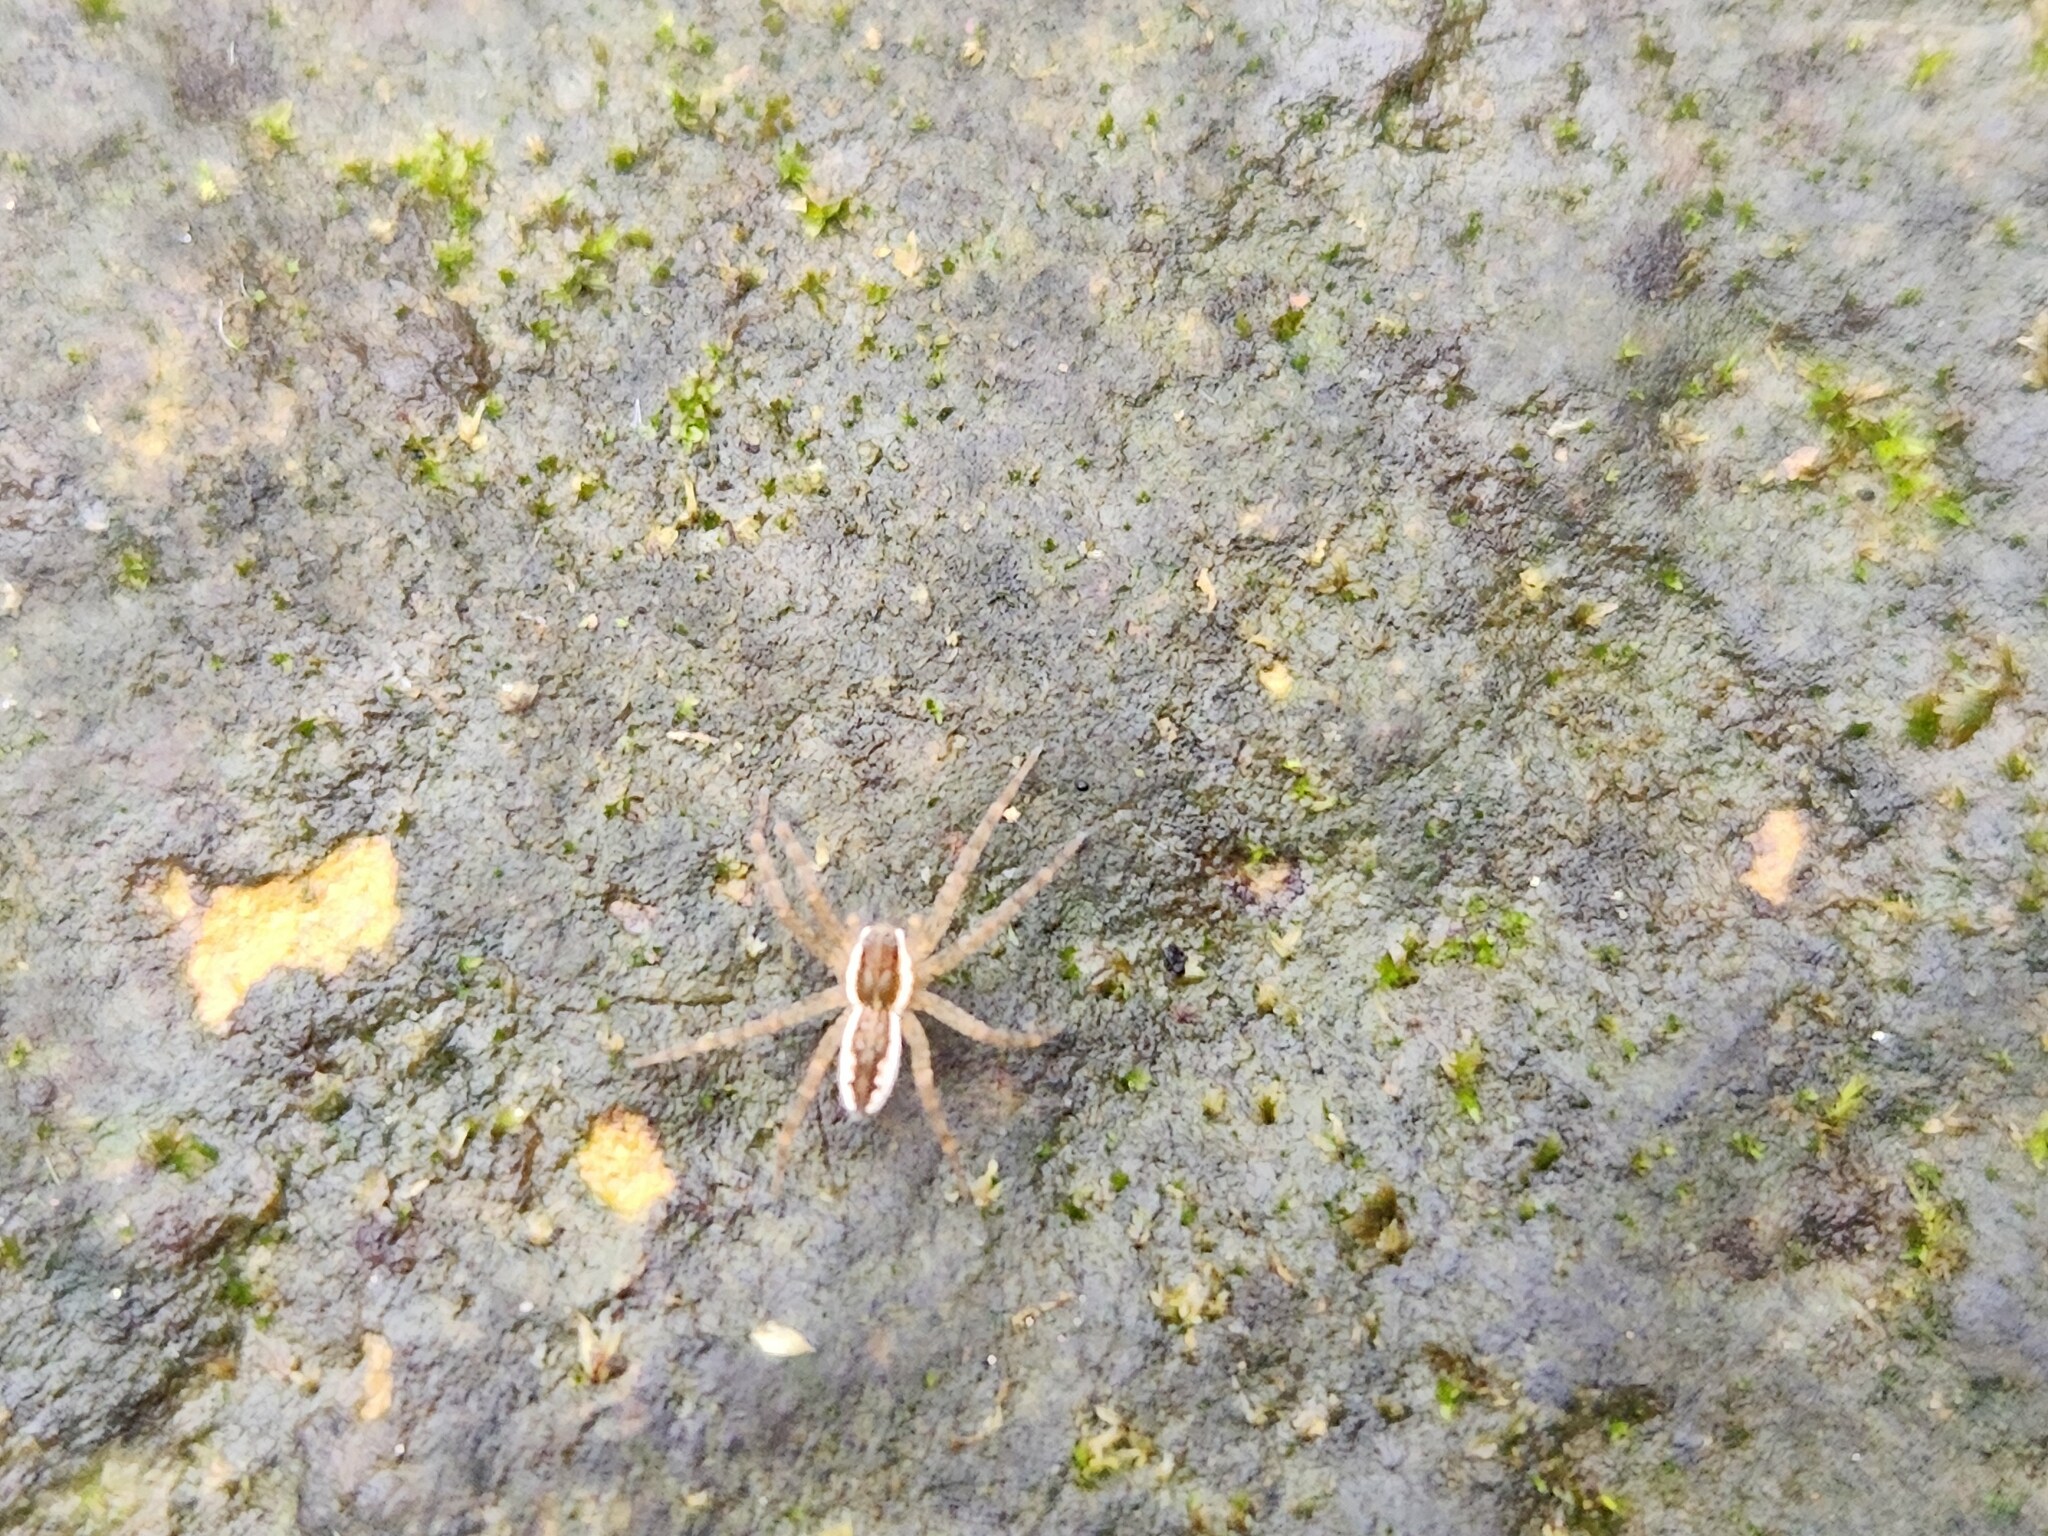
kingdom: Animalia
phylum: Arthropoda
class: Arachnida
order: Araneae
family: Pisauridae
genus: Dolomedes
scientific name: Dolomedes triton
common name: Six-spotted fishing spider
